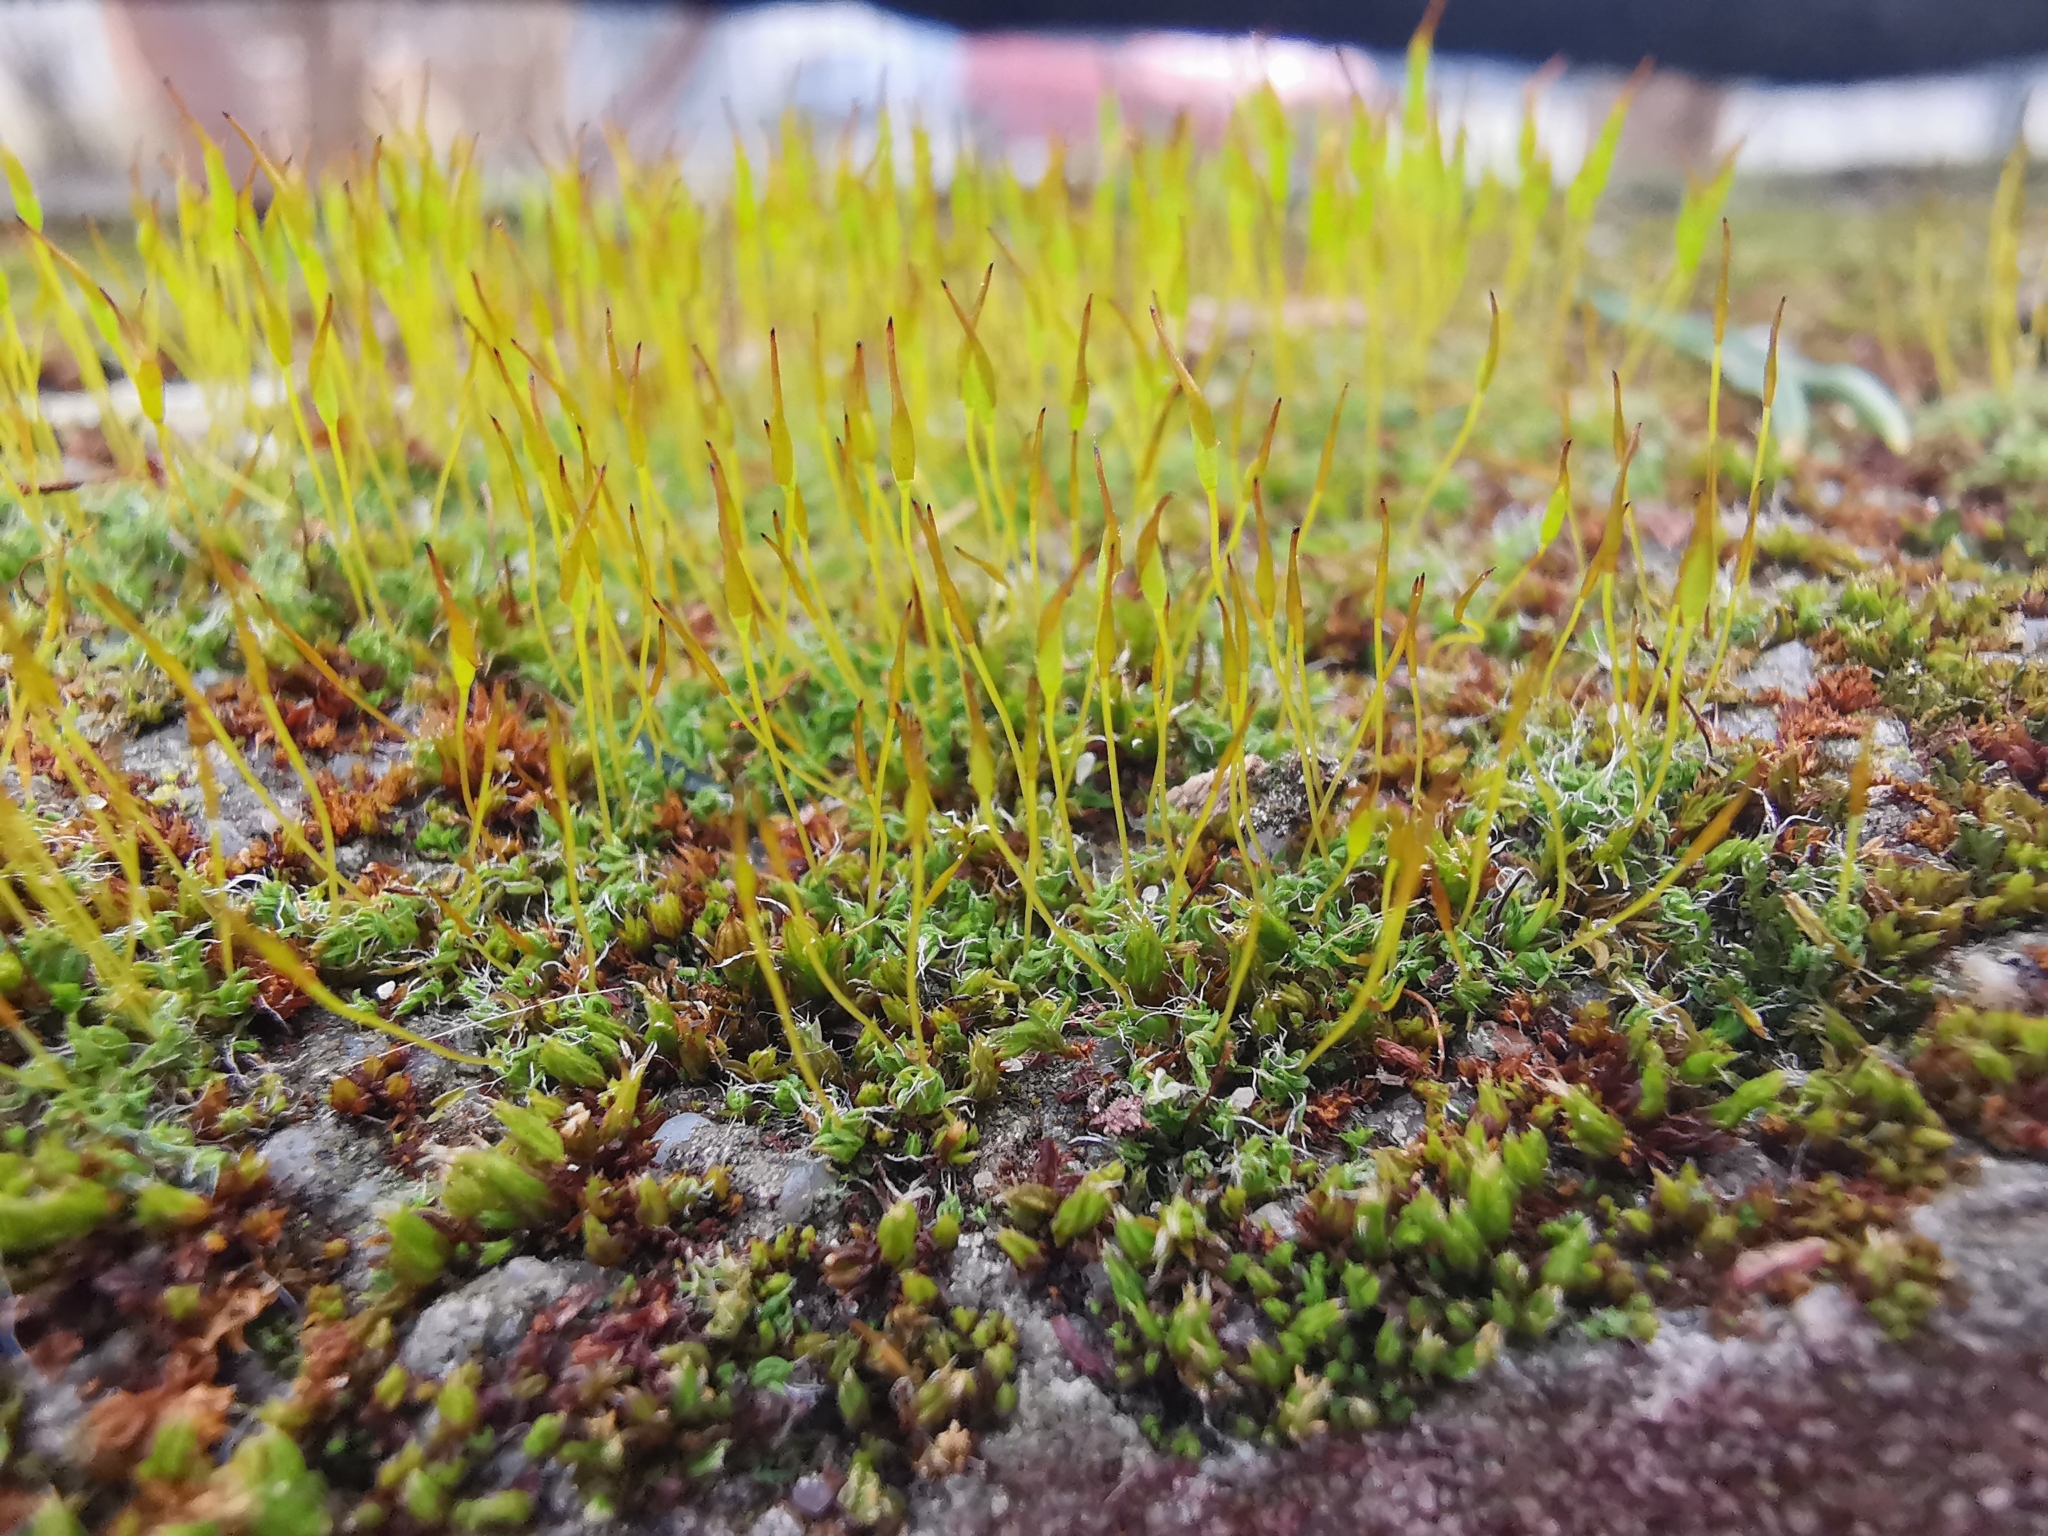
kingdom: Plantae
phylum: Bryophyta
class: Bryopsida
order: Pottiales
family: Pottiaceae
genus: Tortula
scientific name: Tortula muralis
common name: Wall screw-moss
